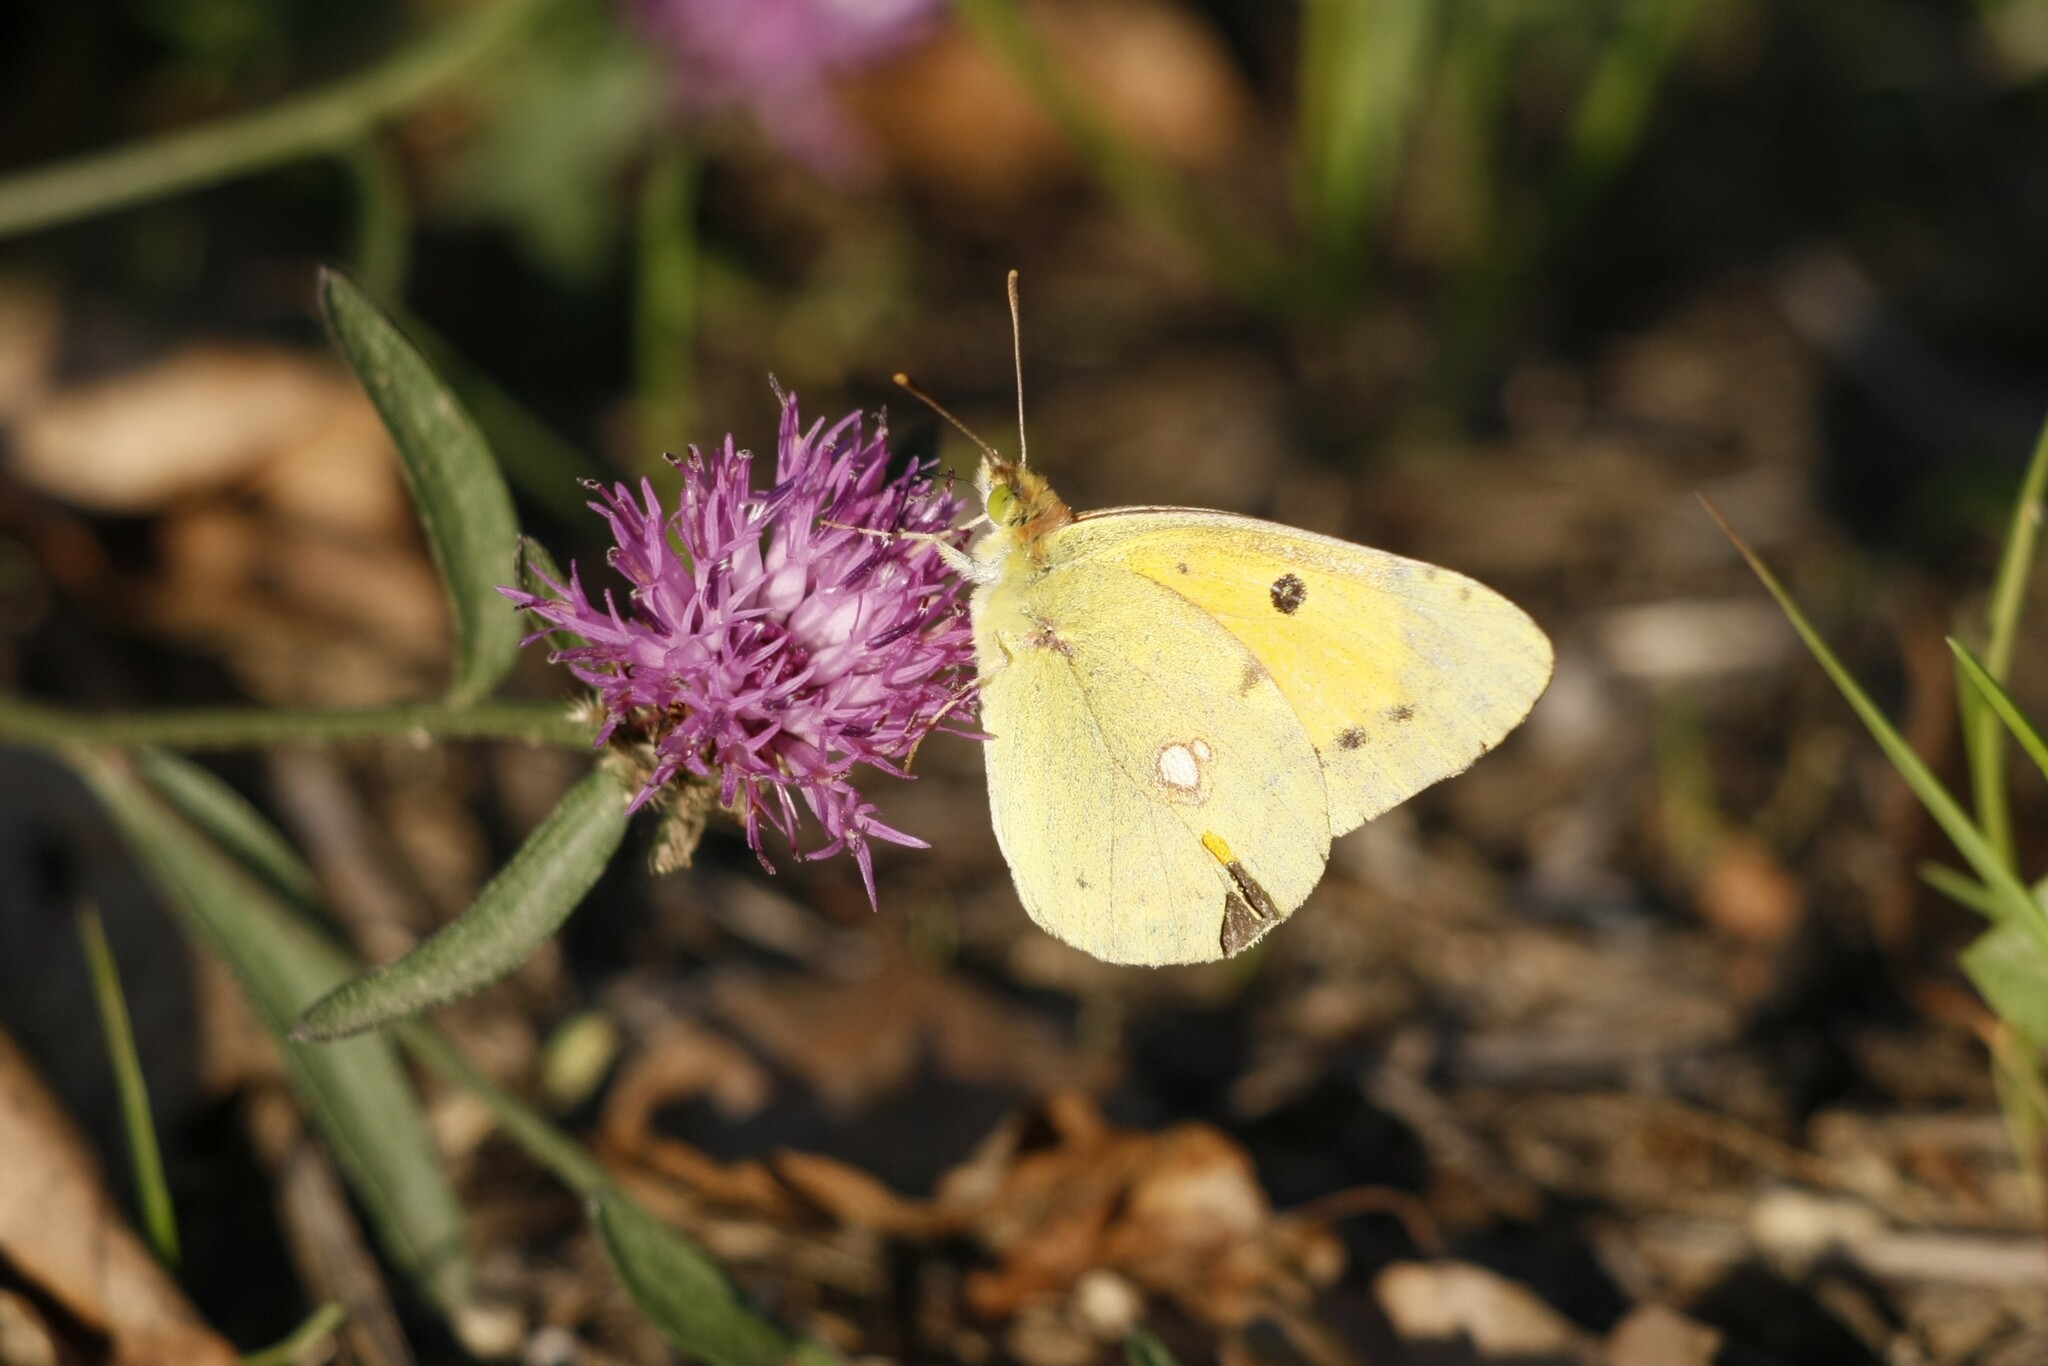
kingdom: Animalia
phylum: Arthropoda
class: Insecta
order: Lepidoptera
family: Pieridae
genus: Colias
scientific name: Colias croceus
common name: Clouded yellow
